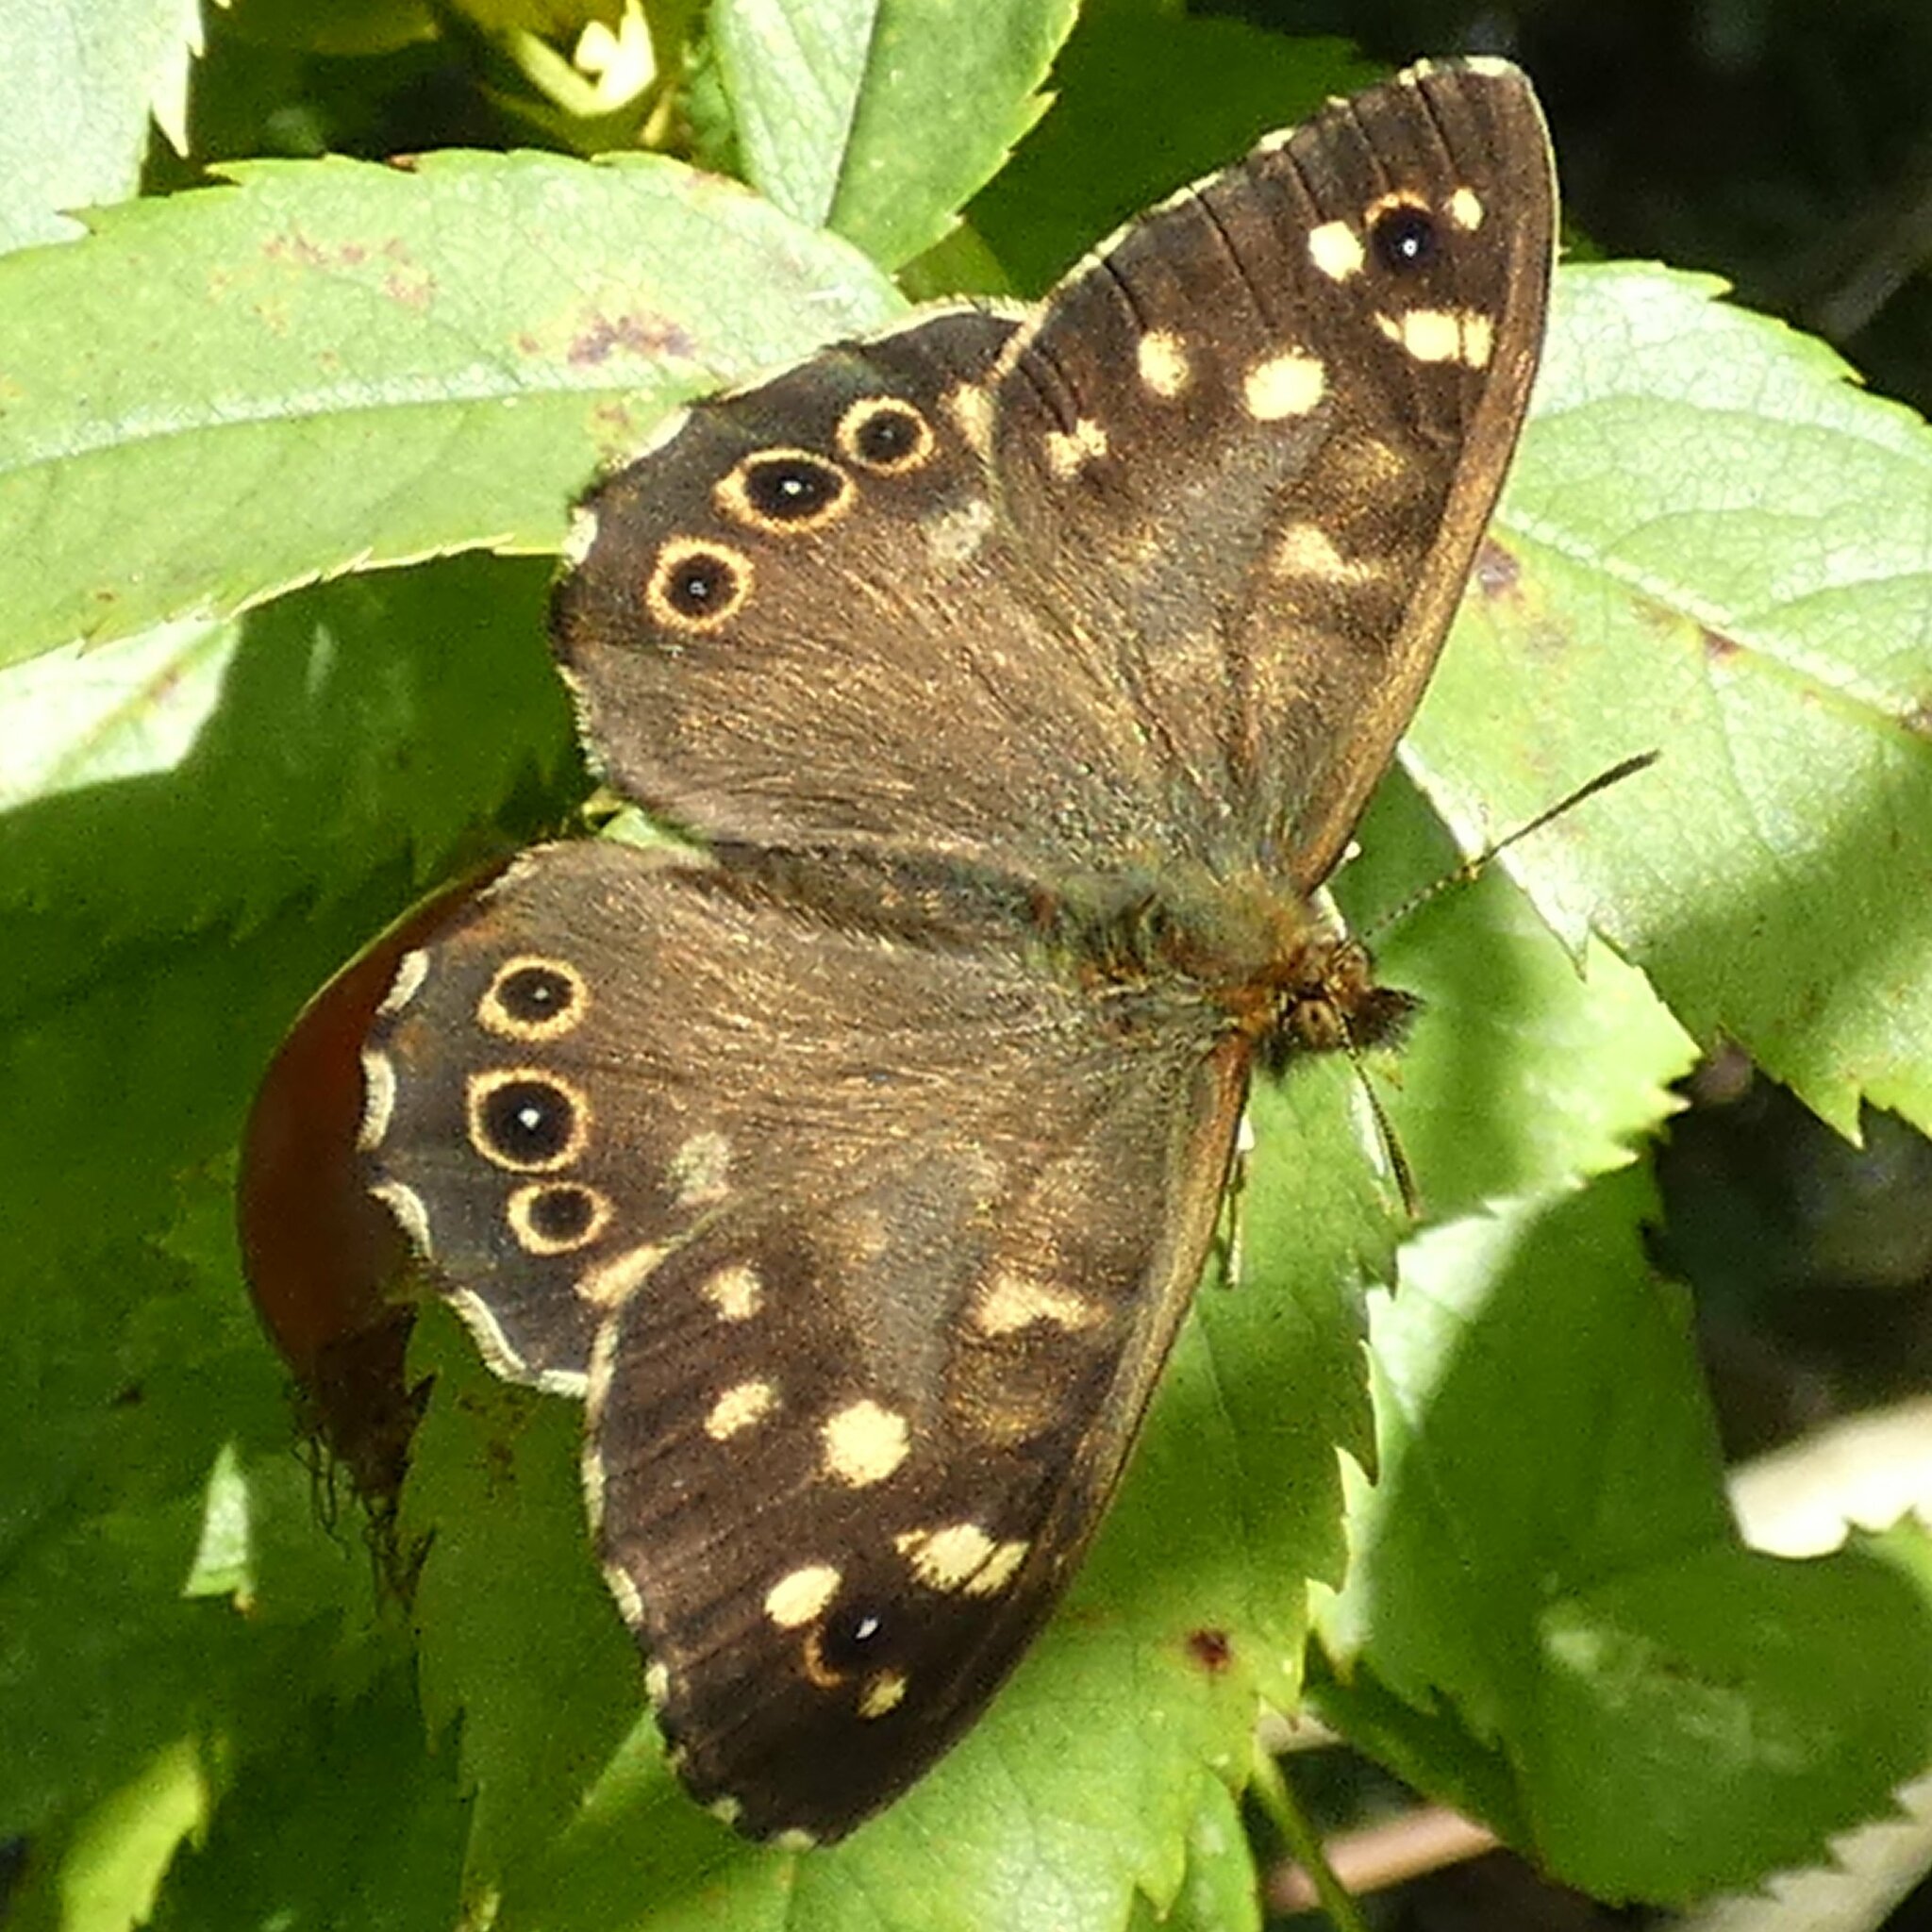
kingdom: Animalia
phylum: Arthropoda
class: Insecta
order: Lepidoptera
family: Nymphalidae
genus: Pararge
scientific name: Pararge aegeria
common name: Speckled wood
